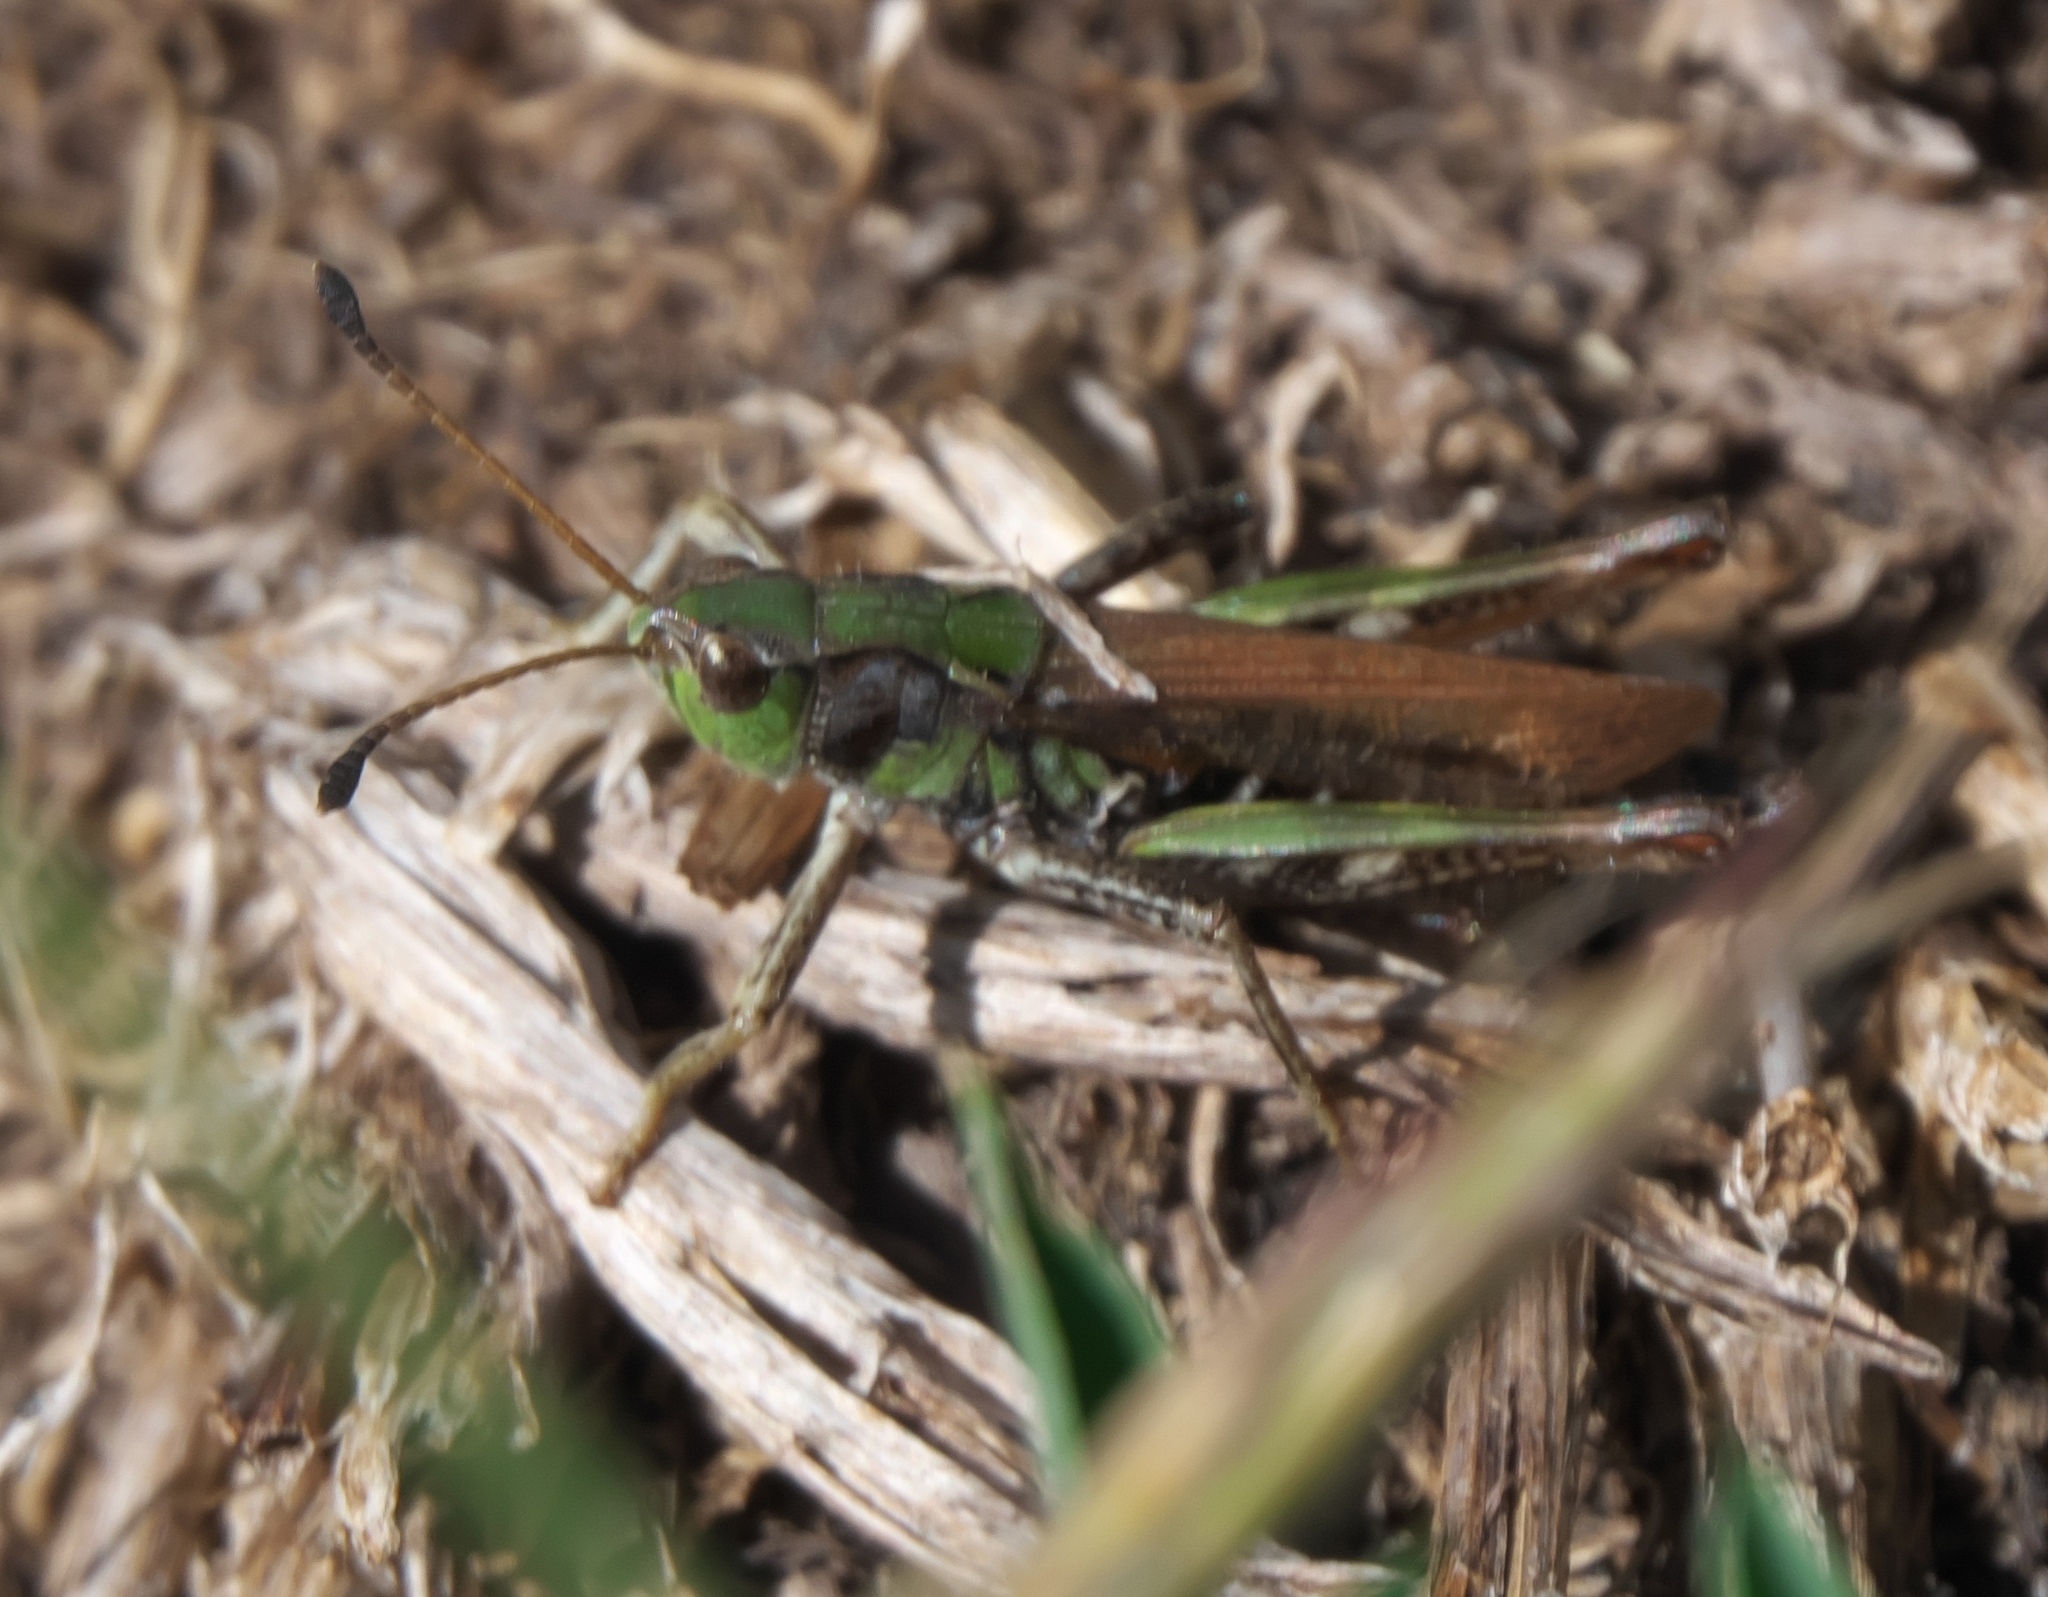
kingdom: Animalia
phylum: Arthropoda
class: Insecta
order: Orthoptera
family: Acrididae
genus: Aeropedellus
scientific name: Aeropedellus clavatus
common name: Clubhorned grasshopper
